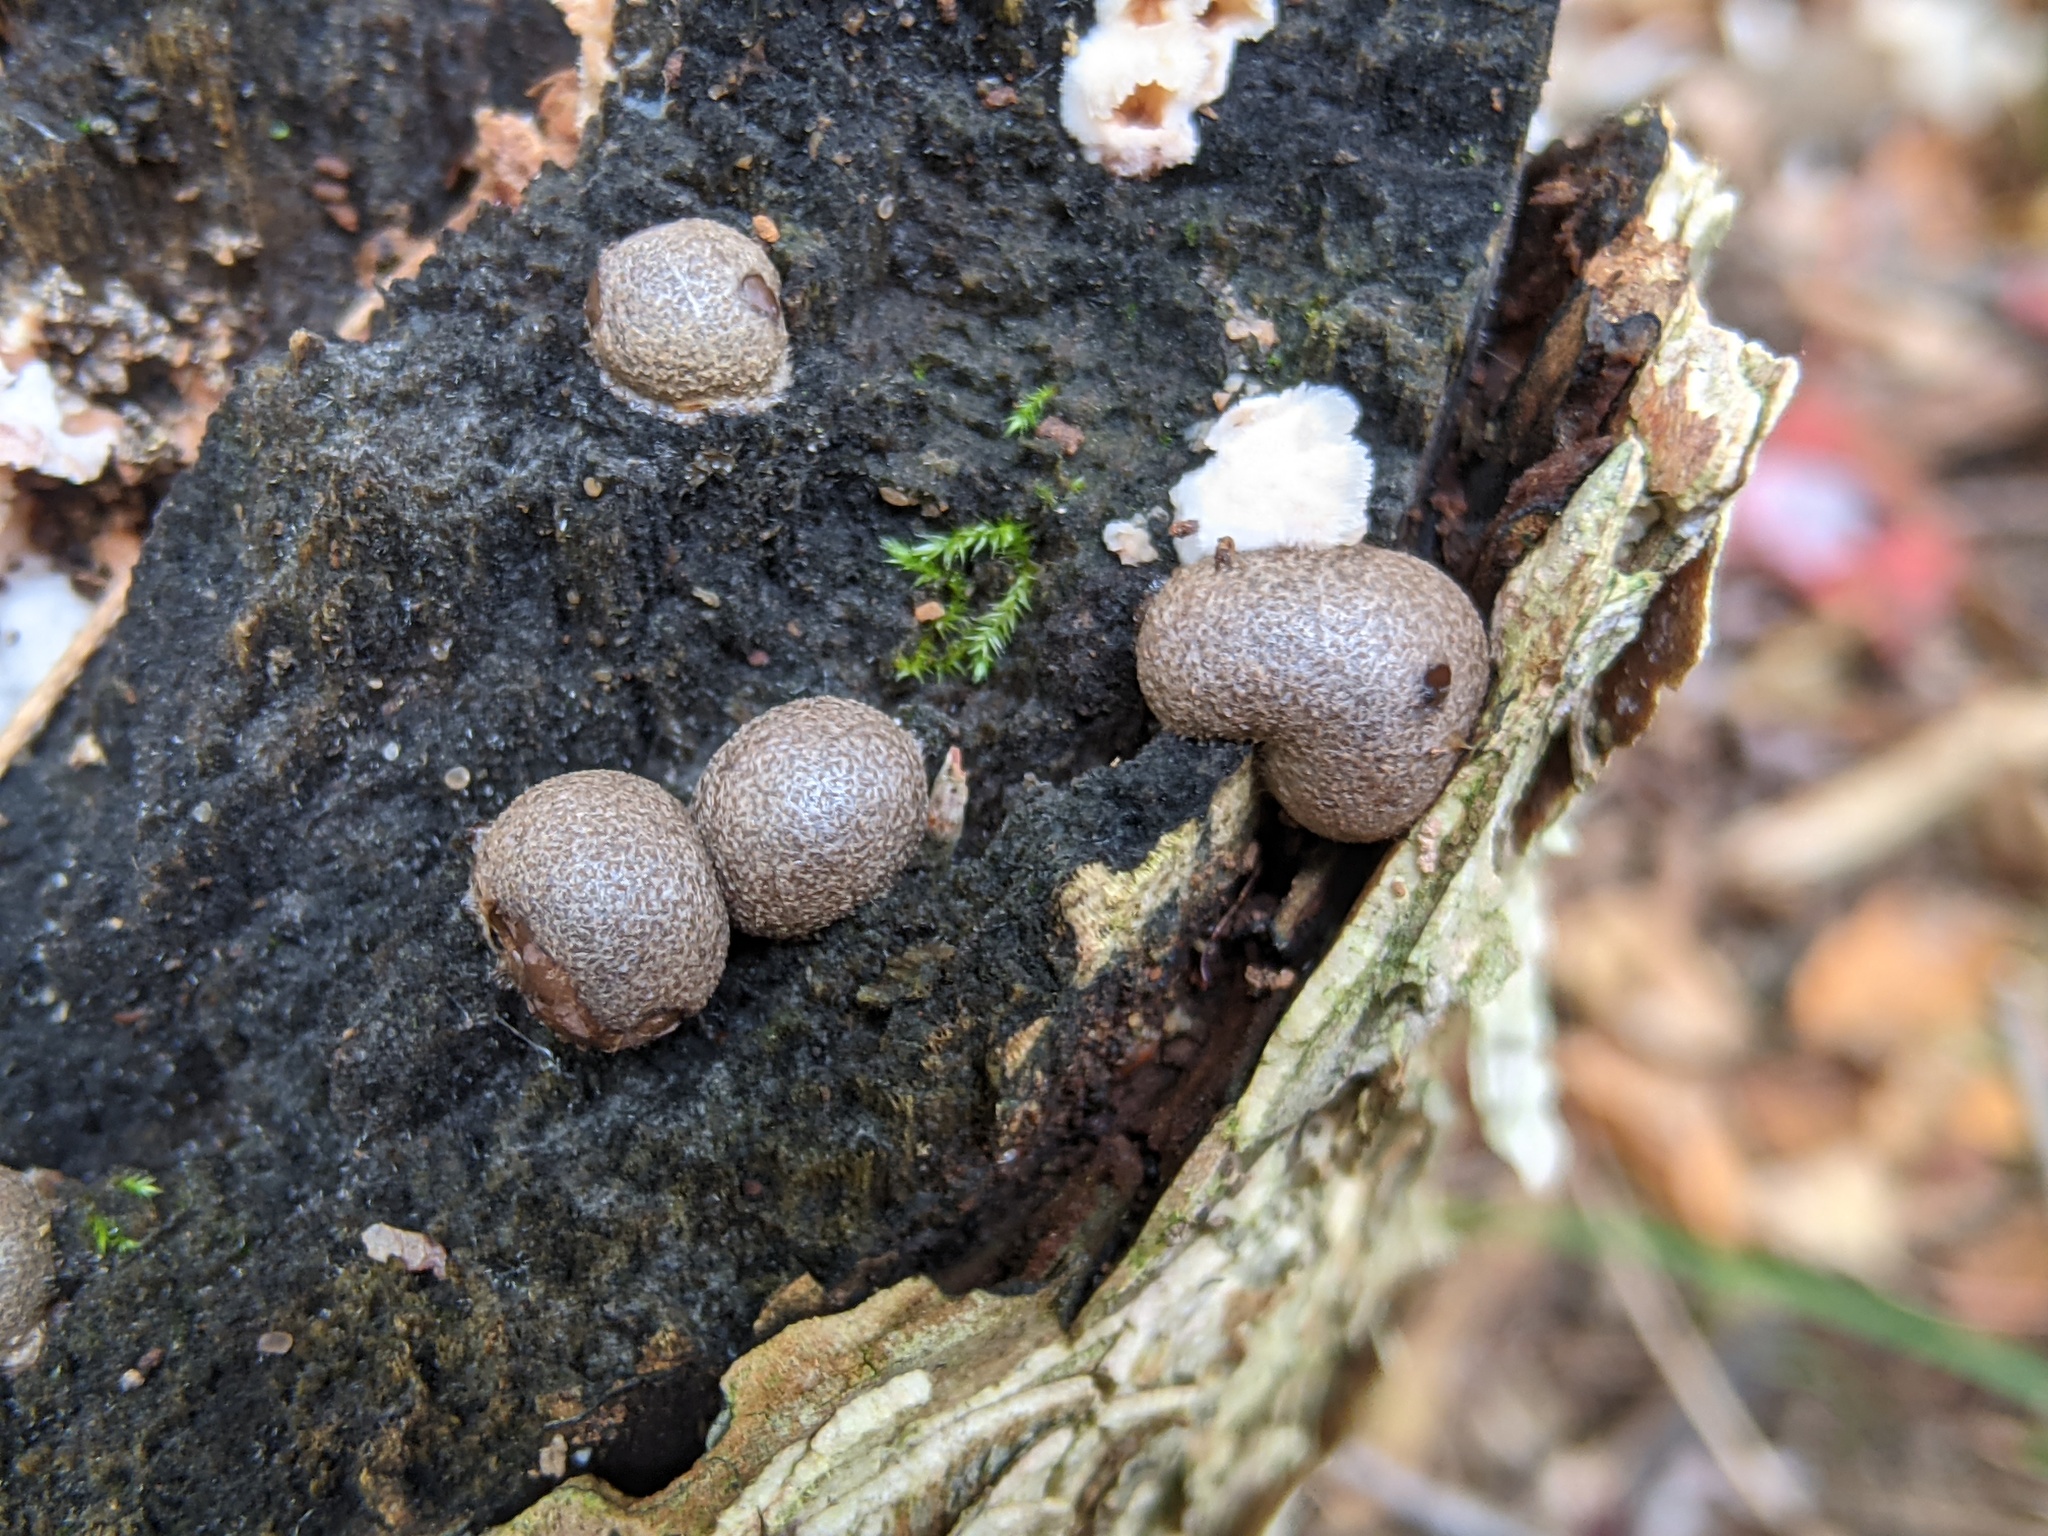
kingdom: Protozoa
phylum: Mycetozoa
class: Myxomycetes
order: Cribrariales
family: Tubiferaceae
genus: Lycogala
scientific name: Lycogala epidendrum
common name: Wolf's milk
